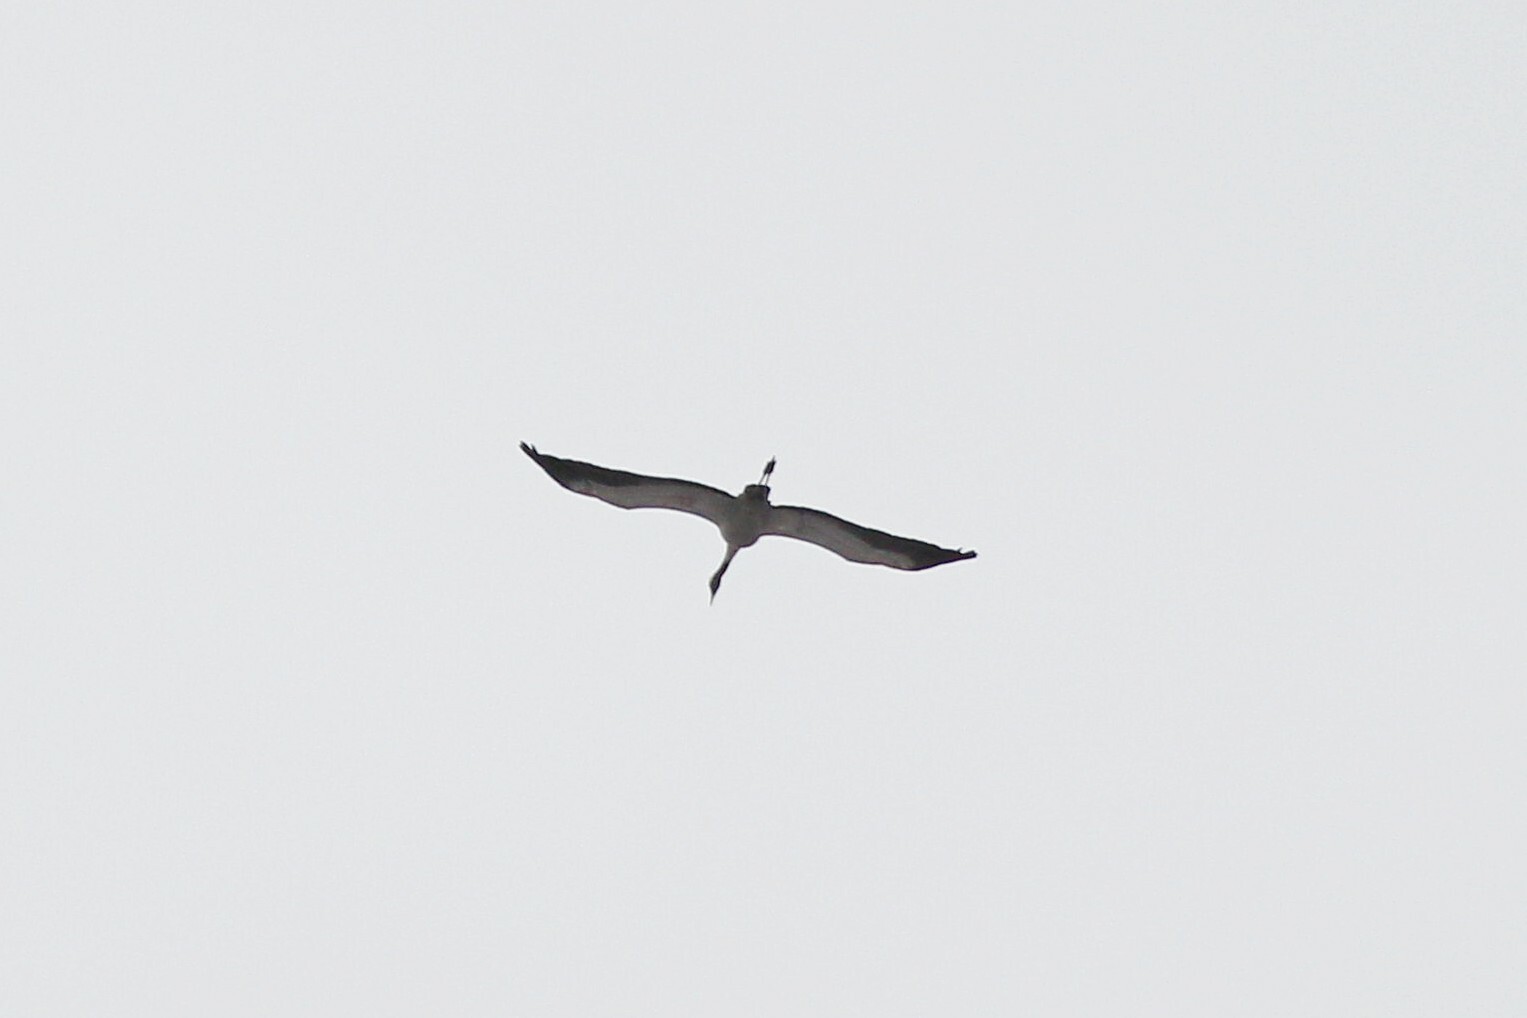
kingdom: Animalia
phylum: Chordata
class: Aves
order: Gruiformes
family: Gruidae
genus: Grus
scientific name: Grus grus
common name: Common crane
